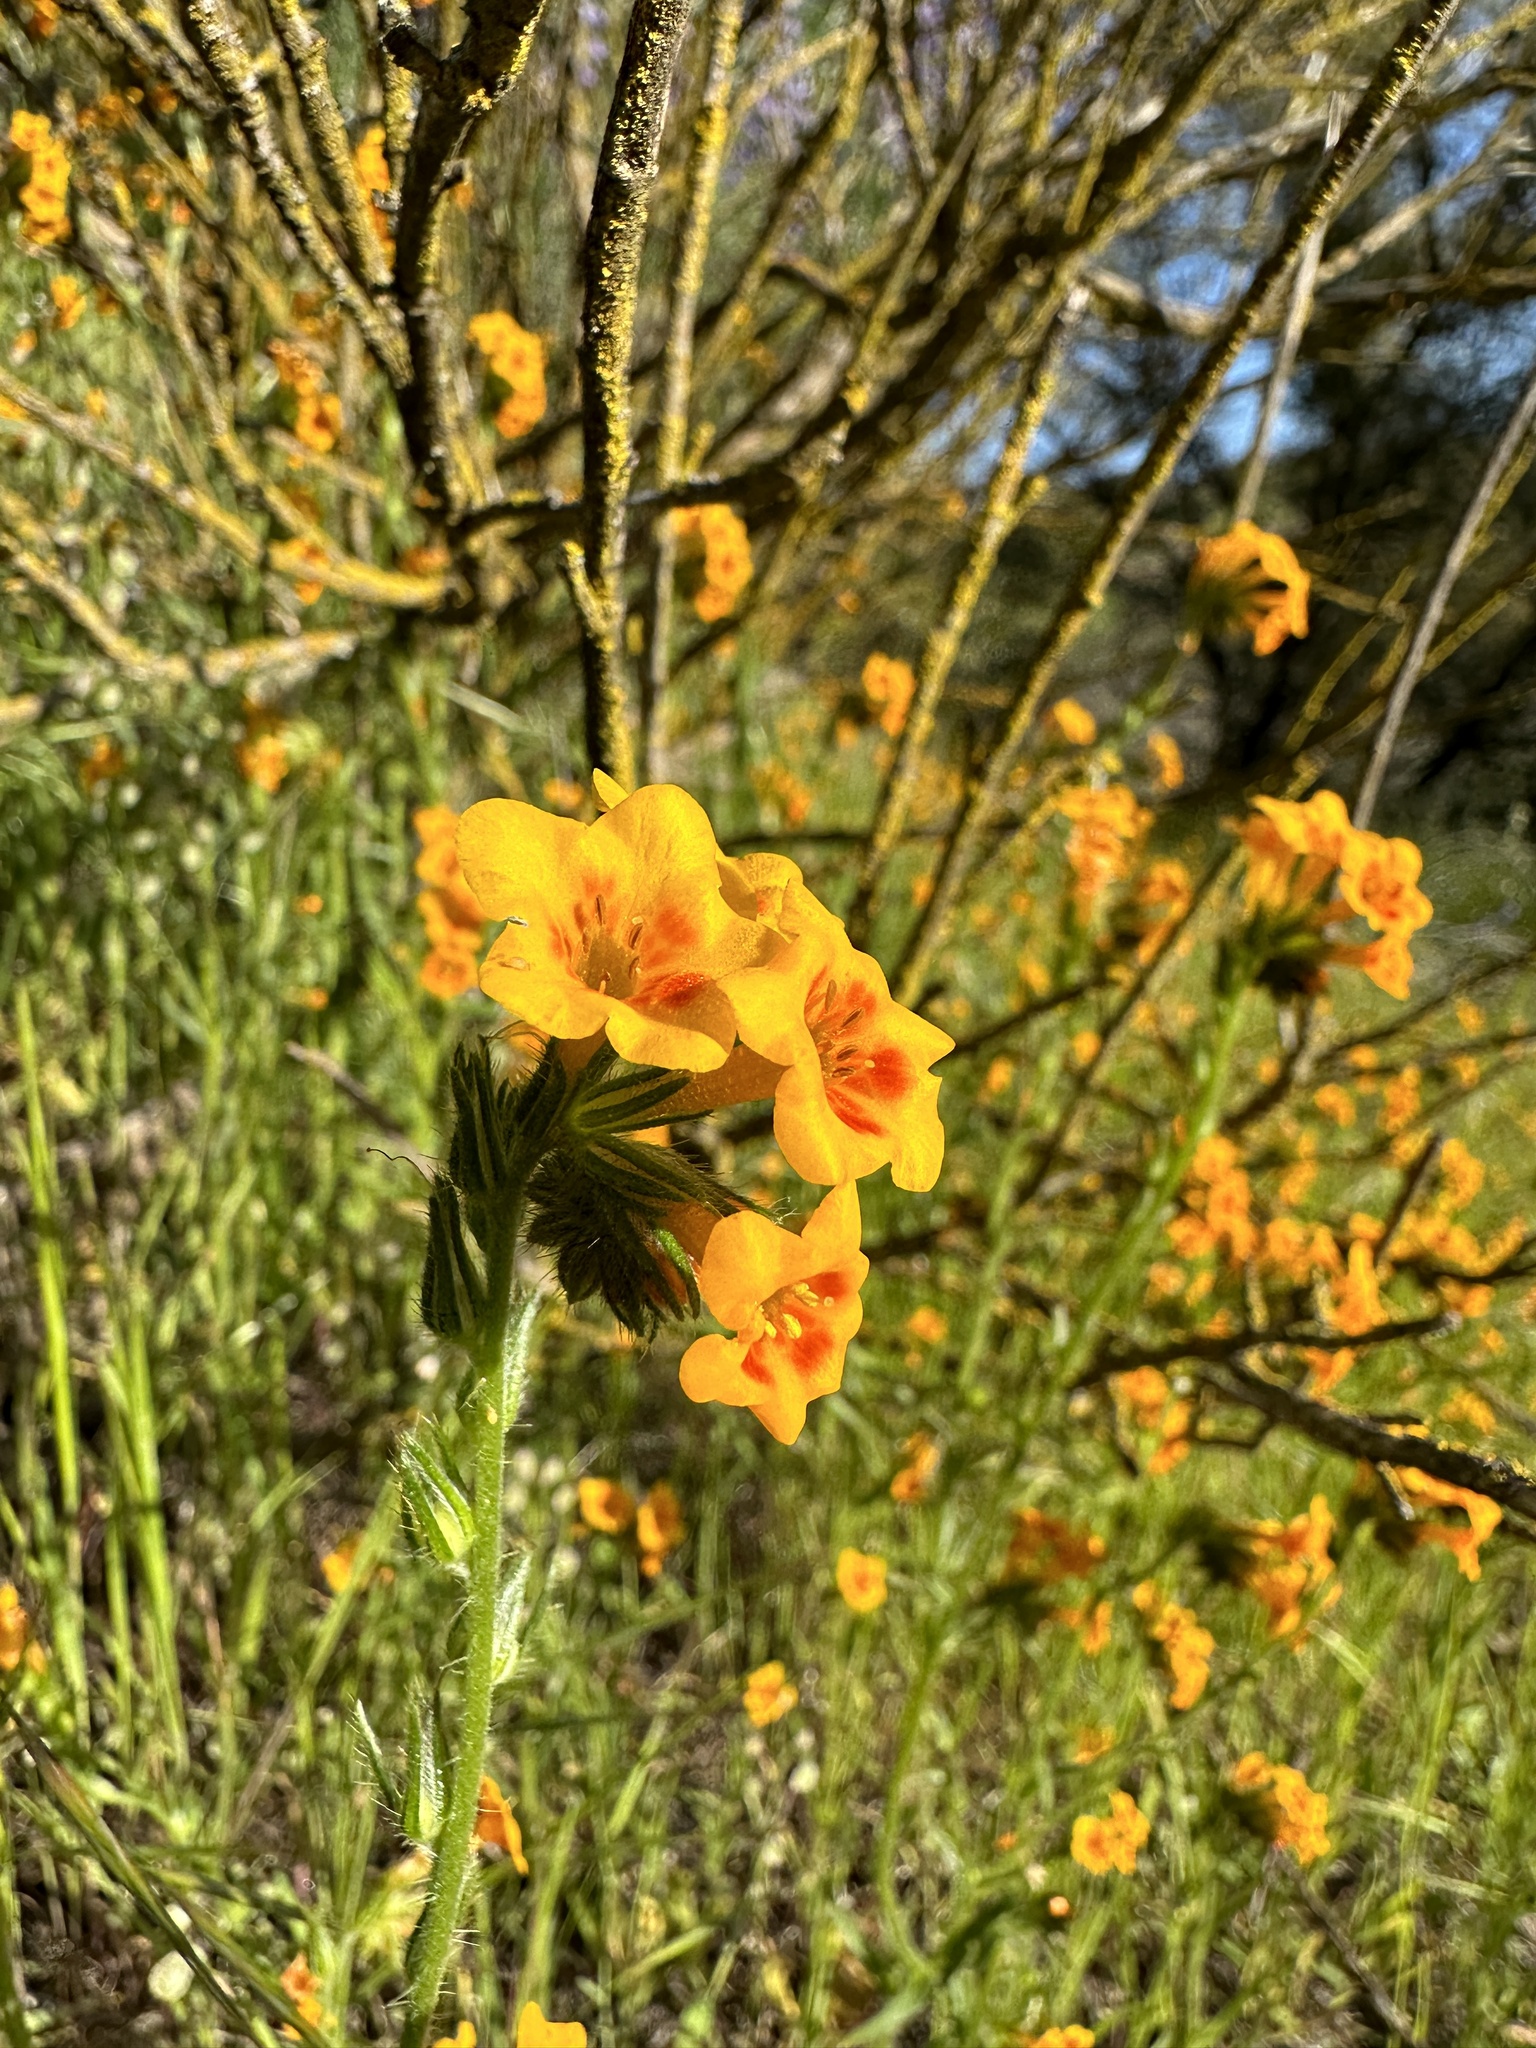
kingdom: Plantae
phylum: Tracheophyta
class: Magnoliopsida
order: Boraginales
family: Boraginaceae
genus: Amsinckia
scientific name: Amsinckia eastwoodiae
